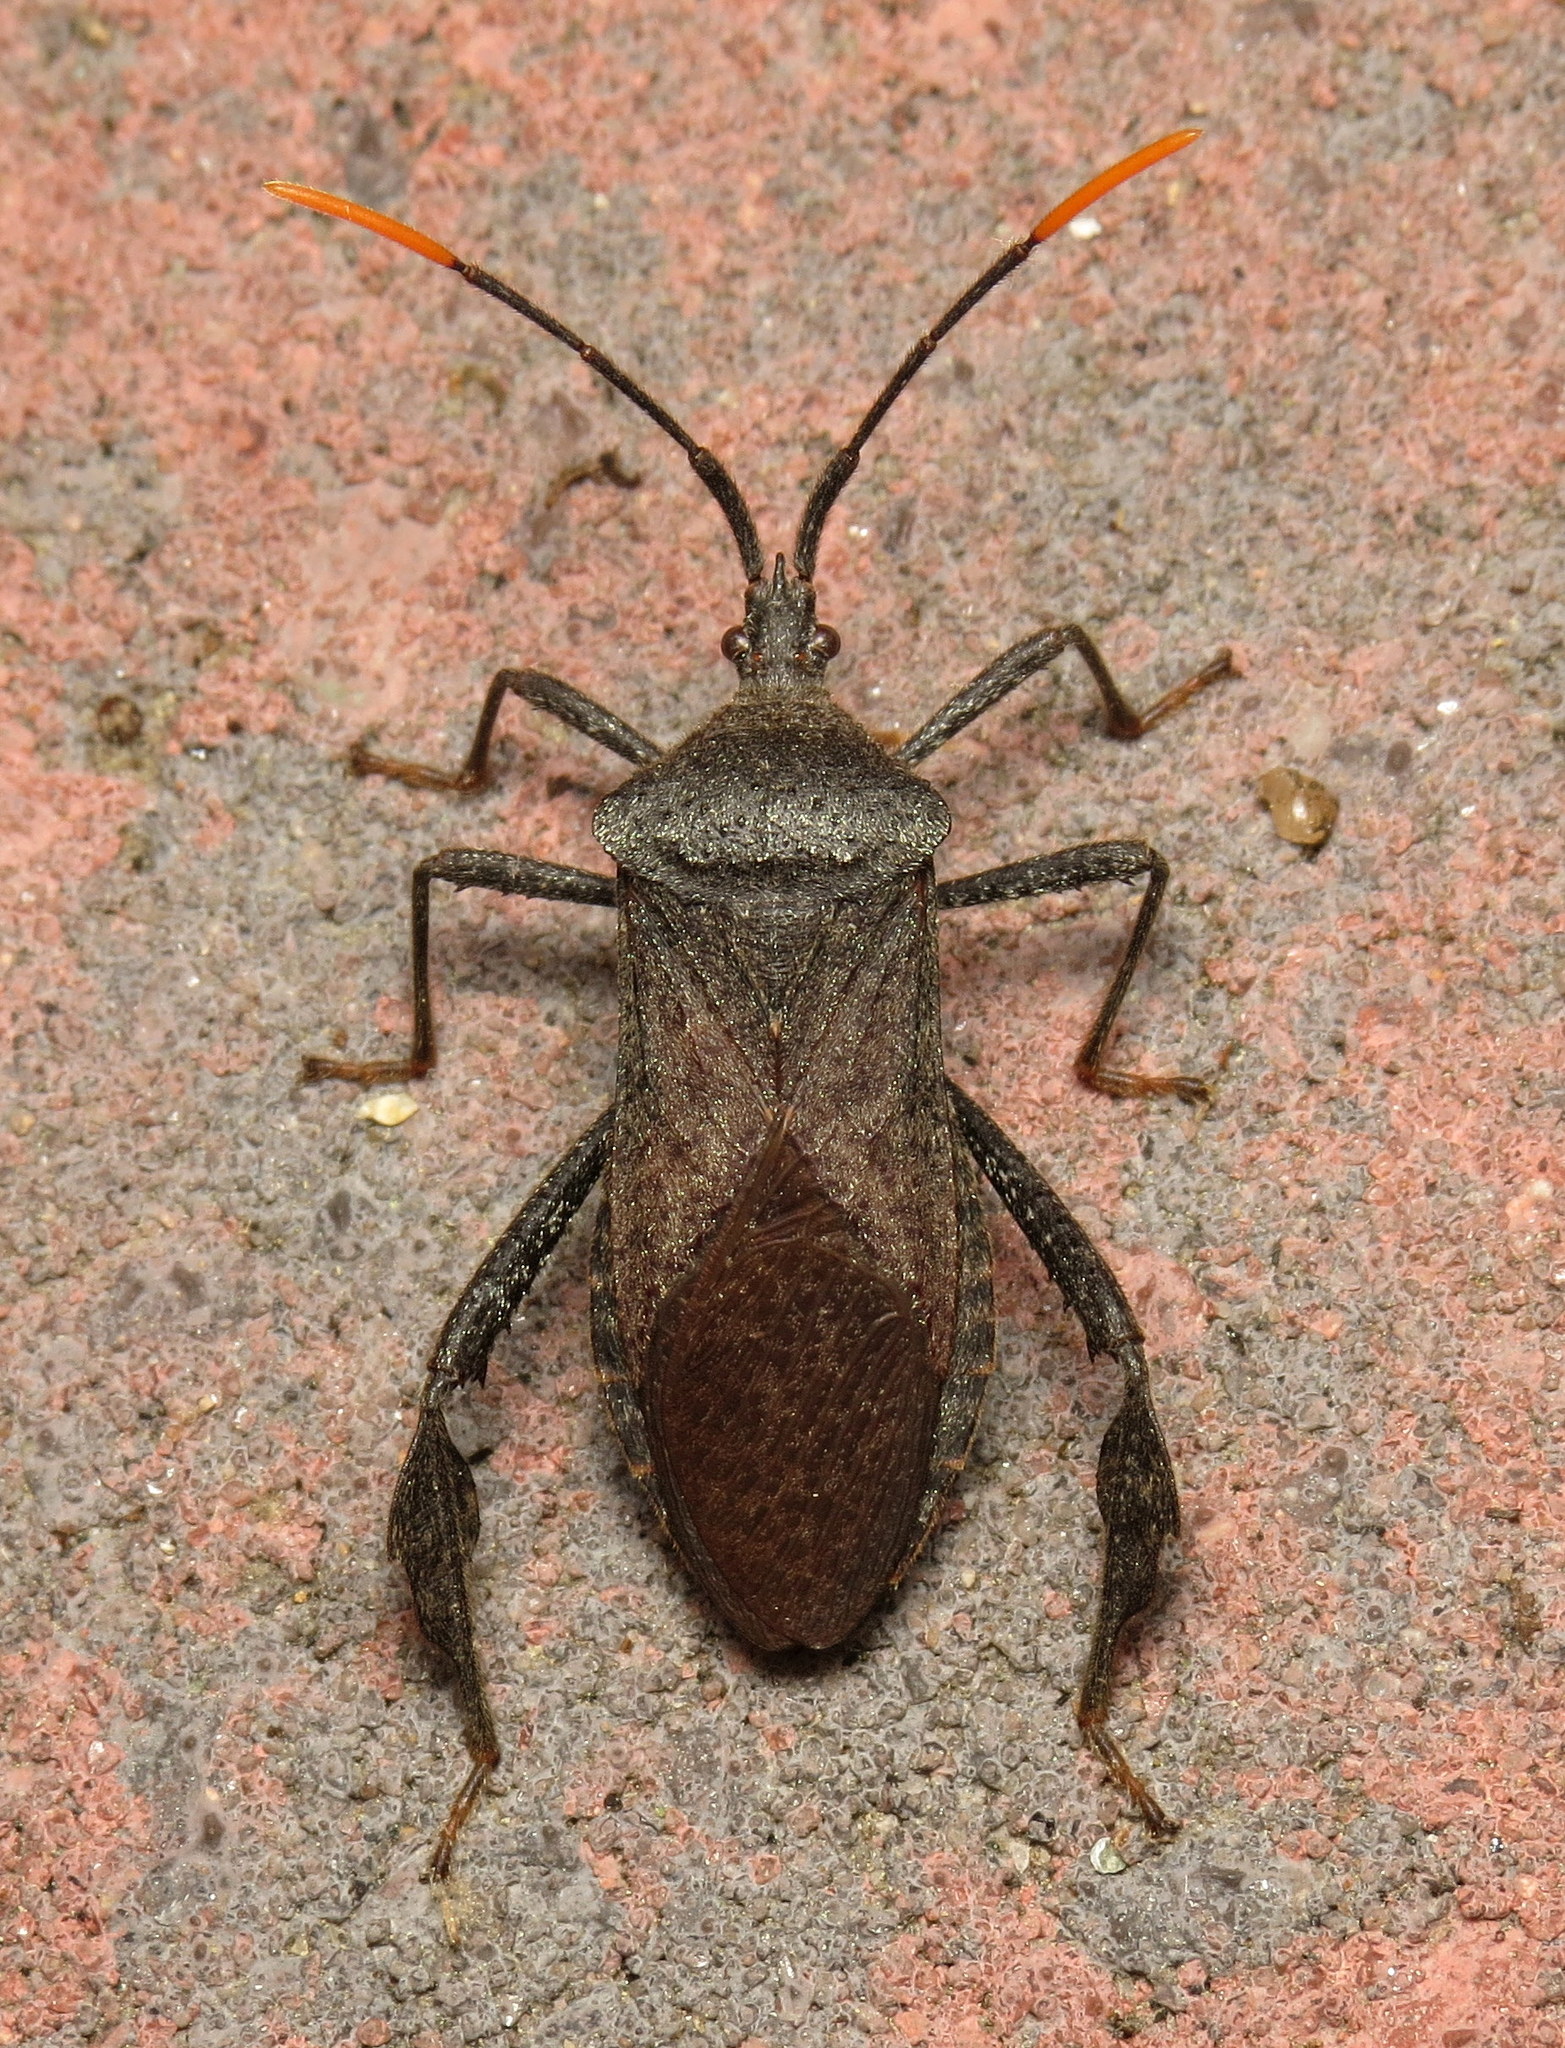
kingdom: Animalia
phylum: Arthropoda
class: Insecta
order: Hemiptera
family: Coreidae
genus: Acanthocephala
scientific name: Acanthocephala terminalis
